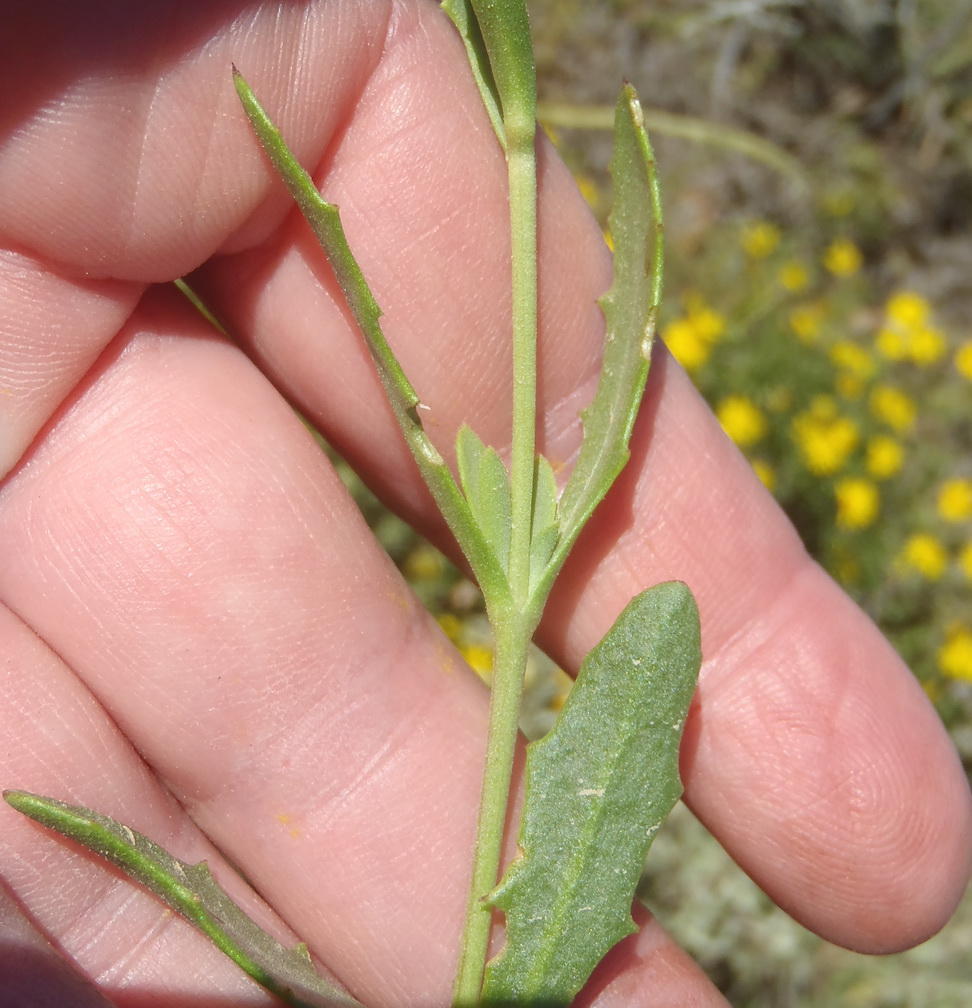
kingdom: Plantae
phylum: Tracheophyta
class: Magnoliopsida
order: Asterales
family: Asteraceae
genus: Osteospermum
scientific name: Osteospermum sinuatum
